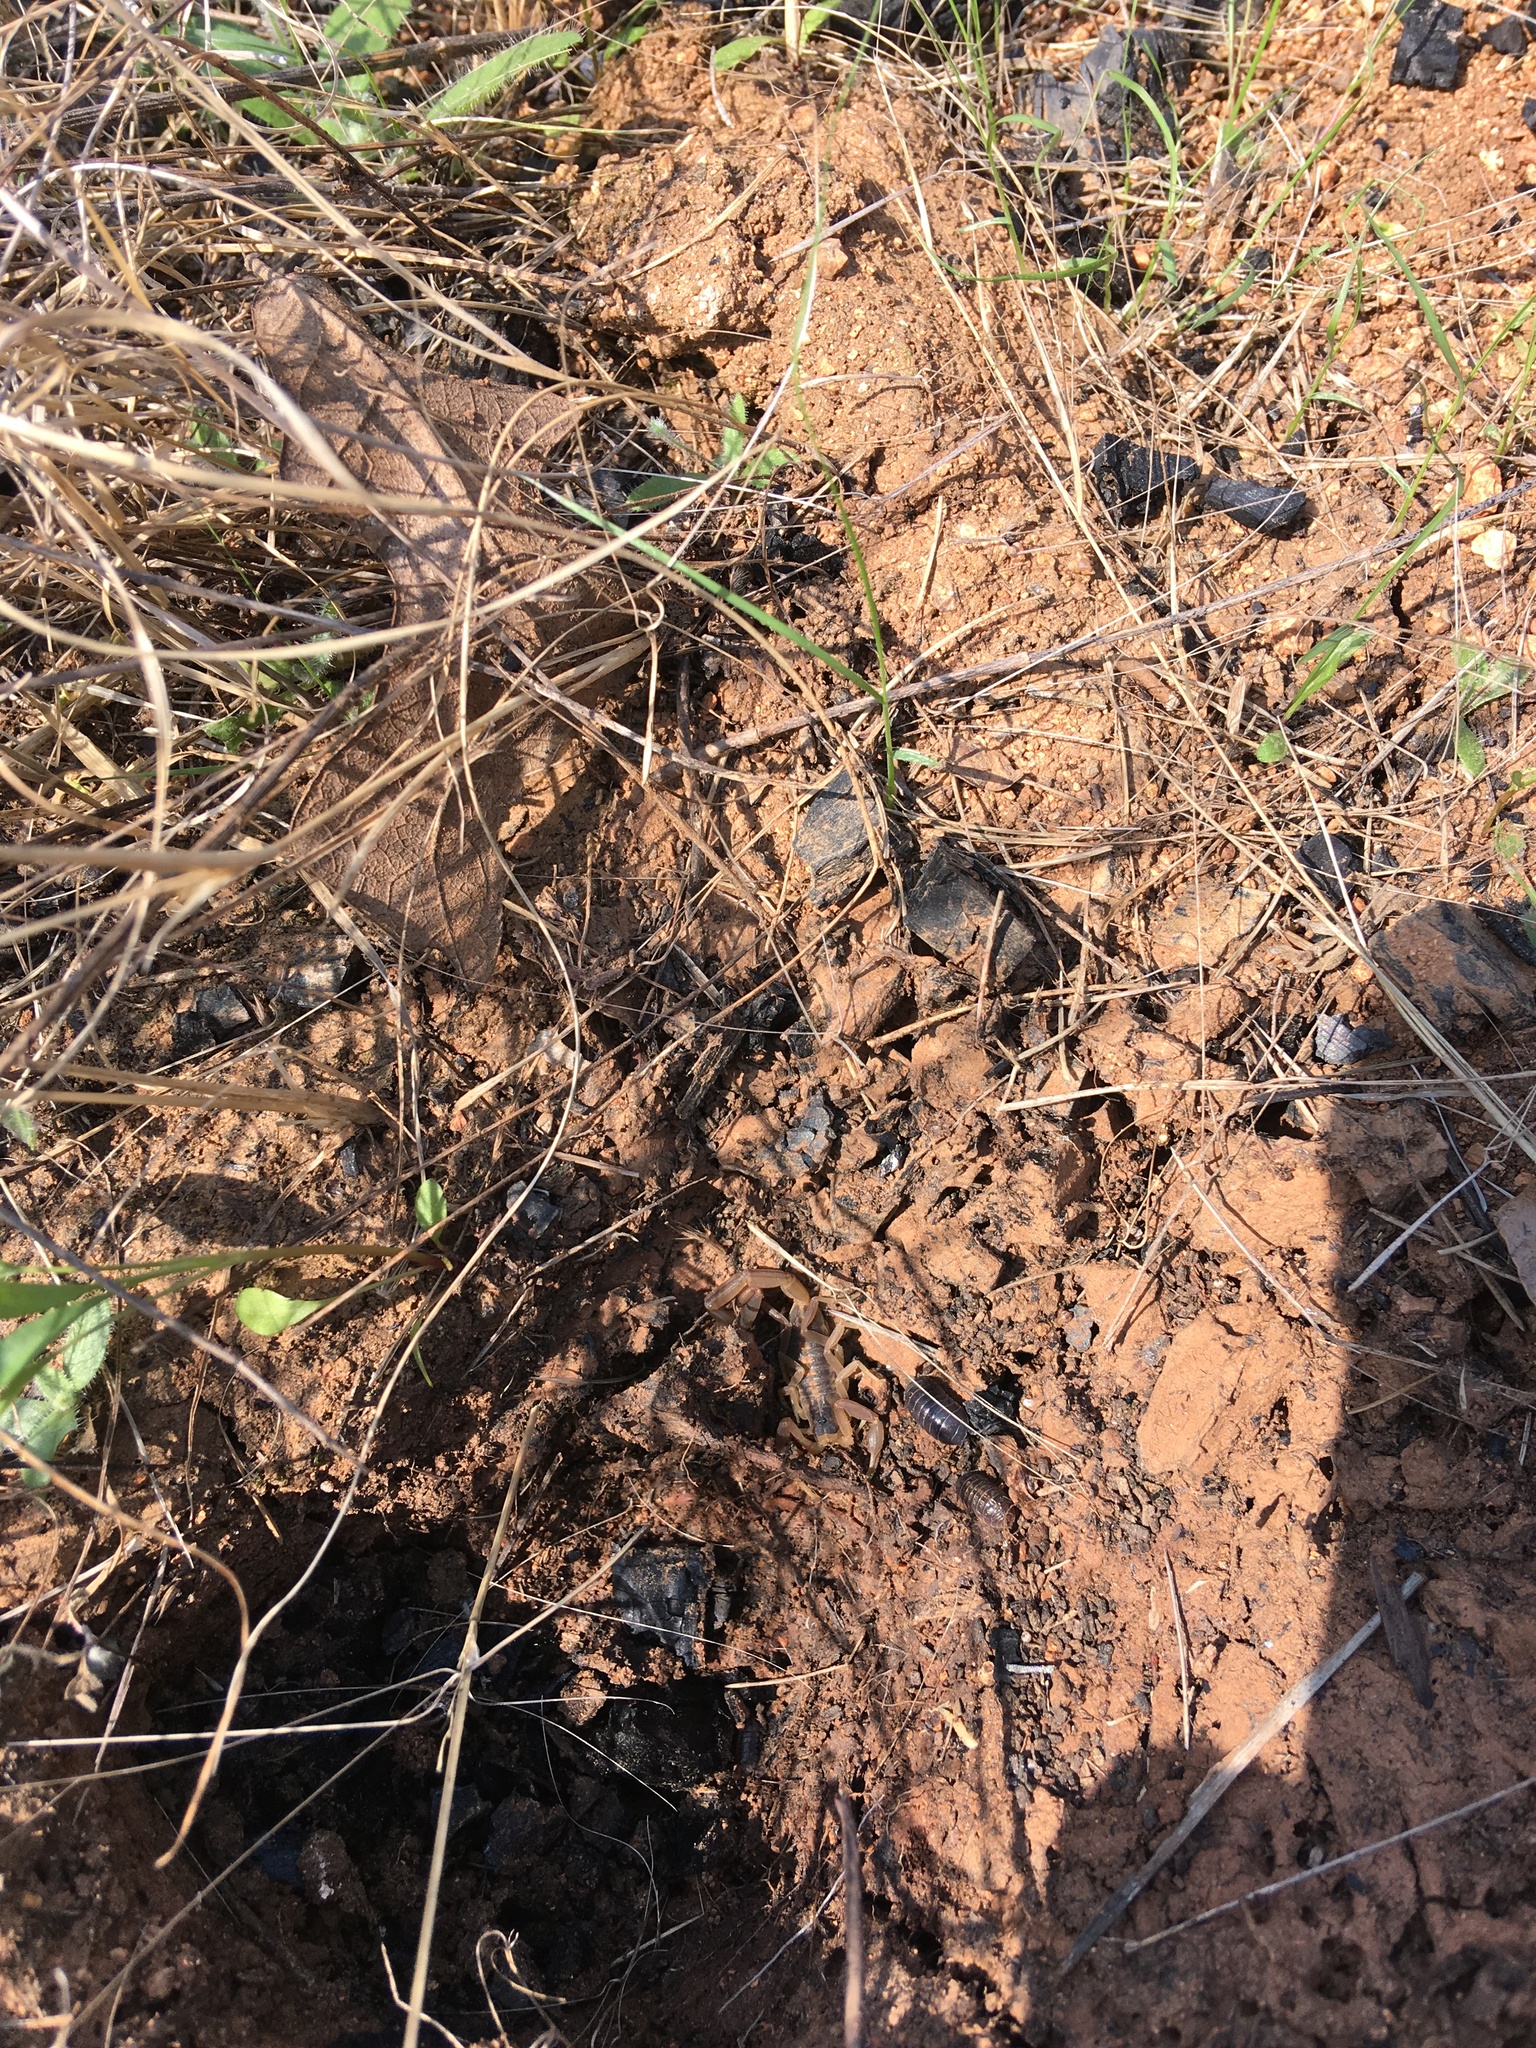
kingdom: Animalia
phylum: Arthropoda
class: Arachnida
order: Scorpiones
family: Buthidae
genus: Centruroides
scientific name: Centruroides vittatus
